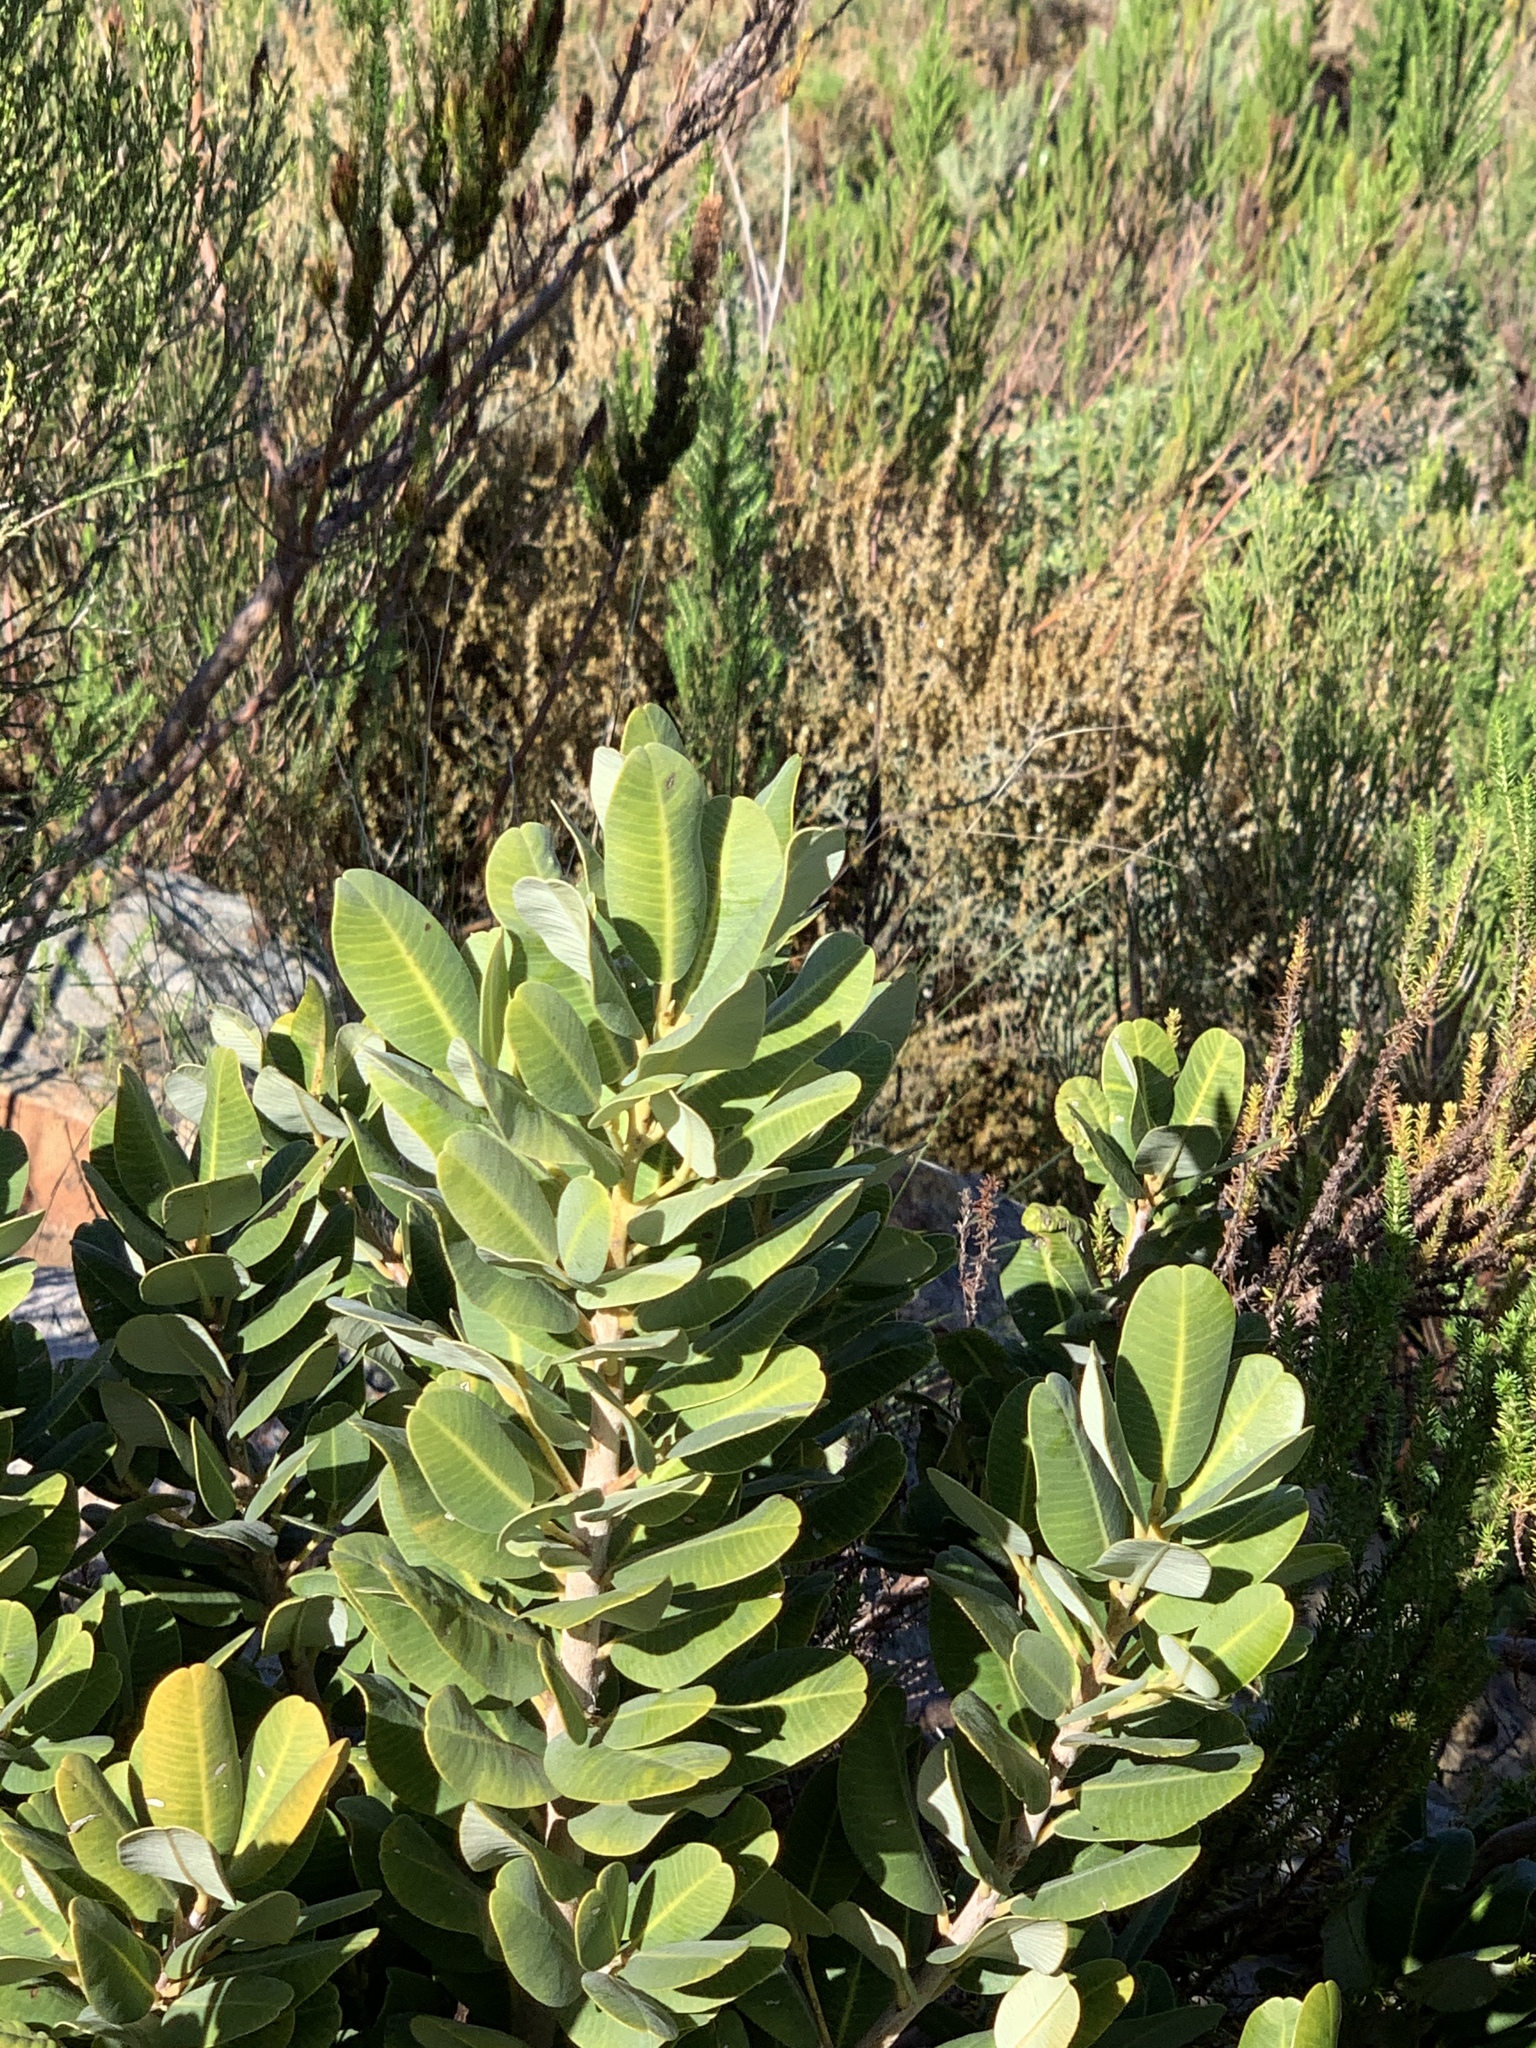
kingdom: Plantae
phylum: Tracheophyta
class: Magnoliopsida
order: Sapindales
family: Anacardiaceae
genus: Heeria
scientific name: Heeria argentea
